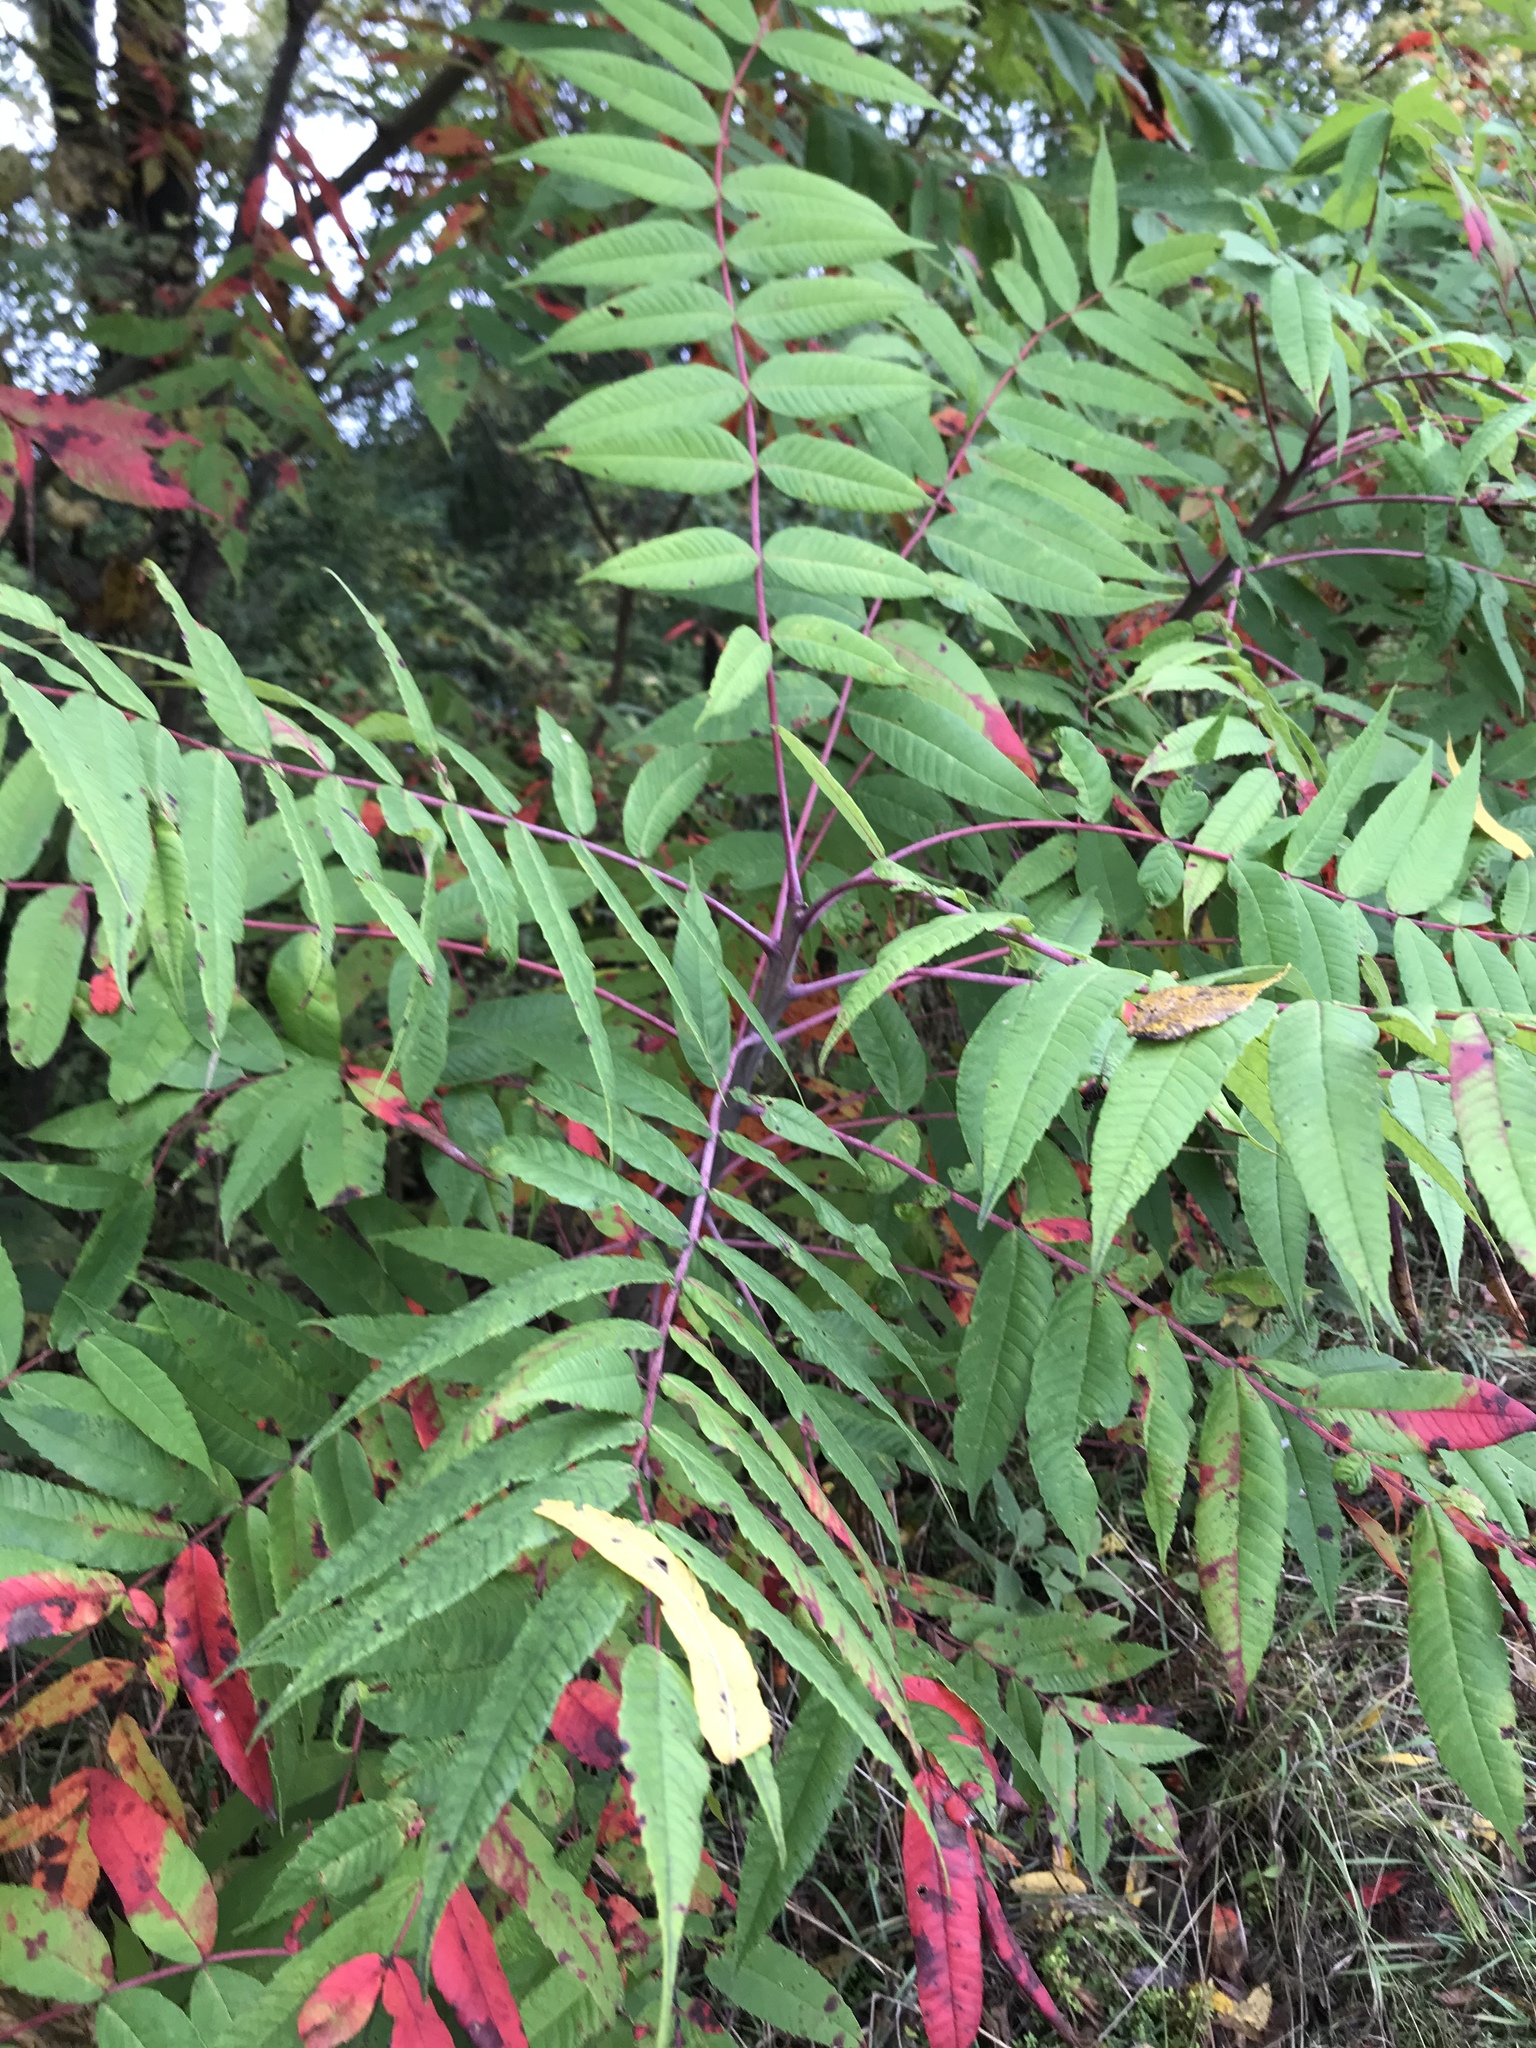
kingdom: Plantae
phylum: Tracheophyta
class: Magnoliopsida
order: Sapindales
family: Anacardiaceae
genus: Rhus
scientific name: Rhus glabra
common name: Scarlet sumac
